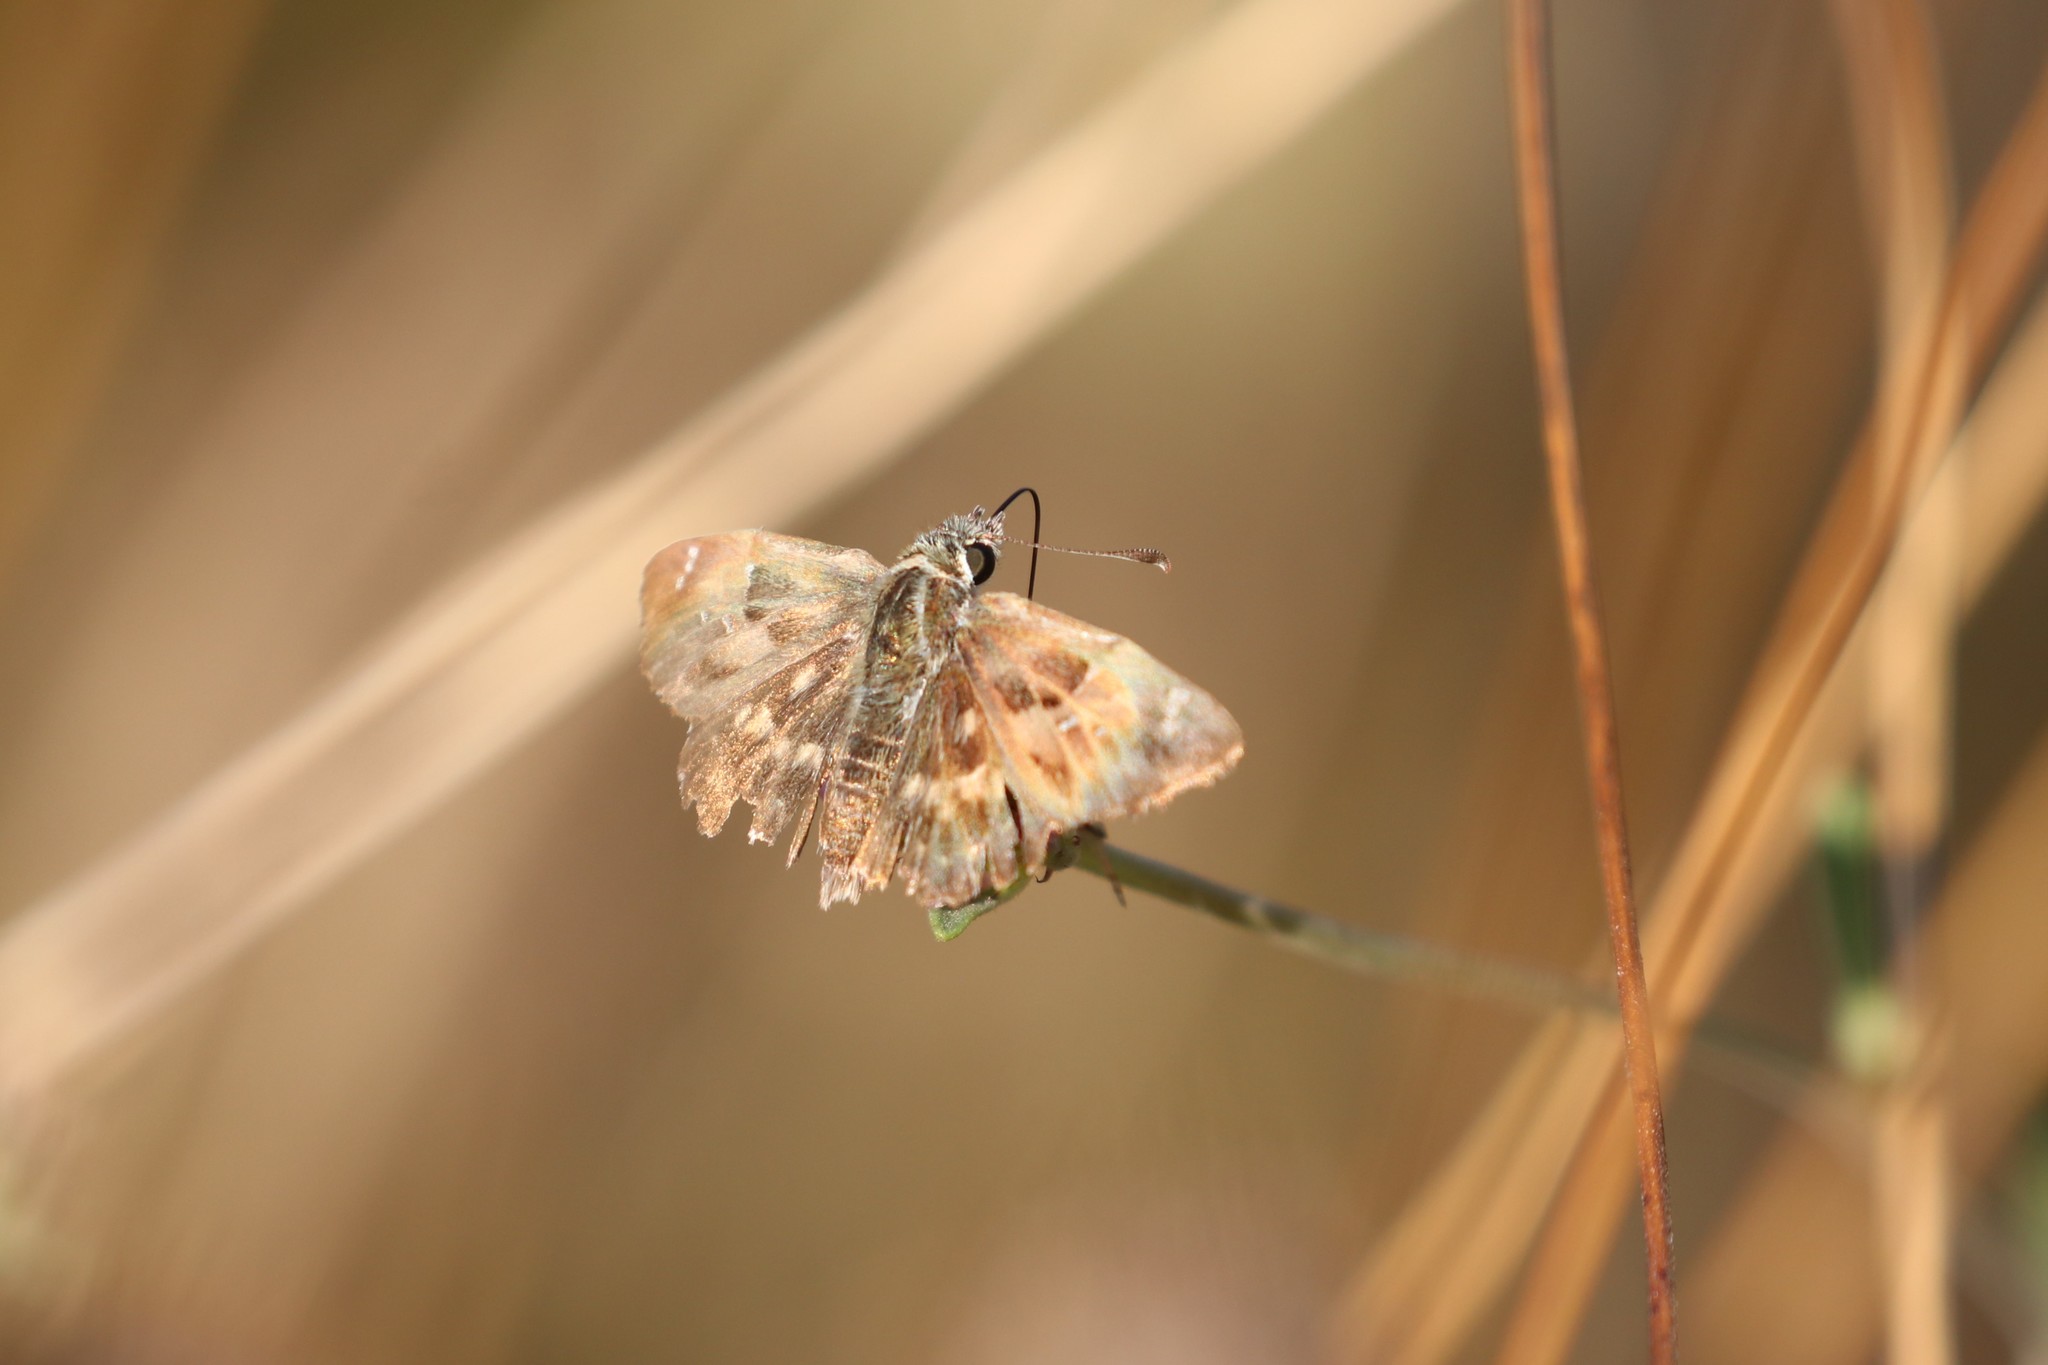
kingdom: Animalia
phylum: Arthropoda
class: Insecta
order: Lepidoptera
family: Hesperiidae
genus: Carcharodus
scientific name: Carcharodus alceae
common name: Mallow skipper
